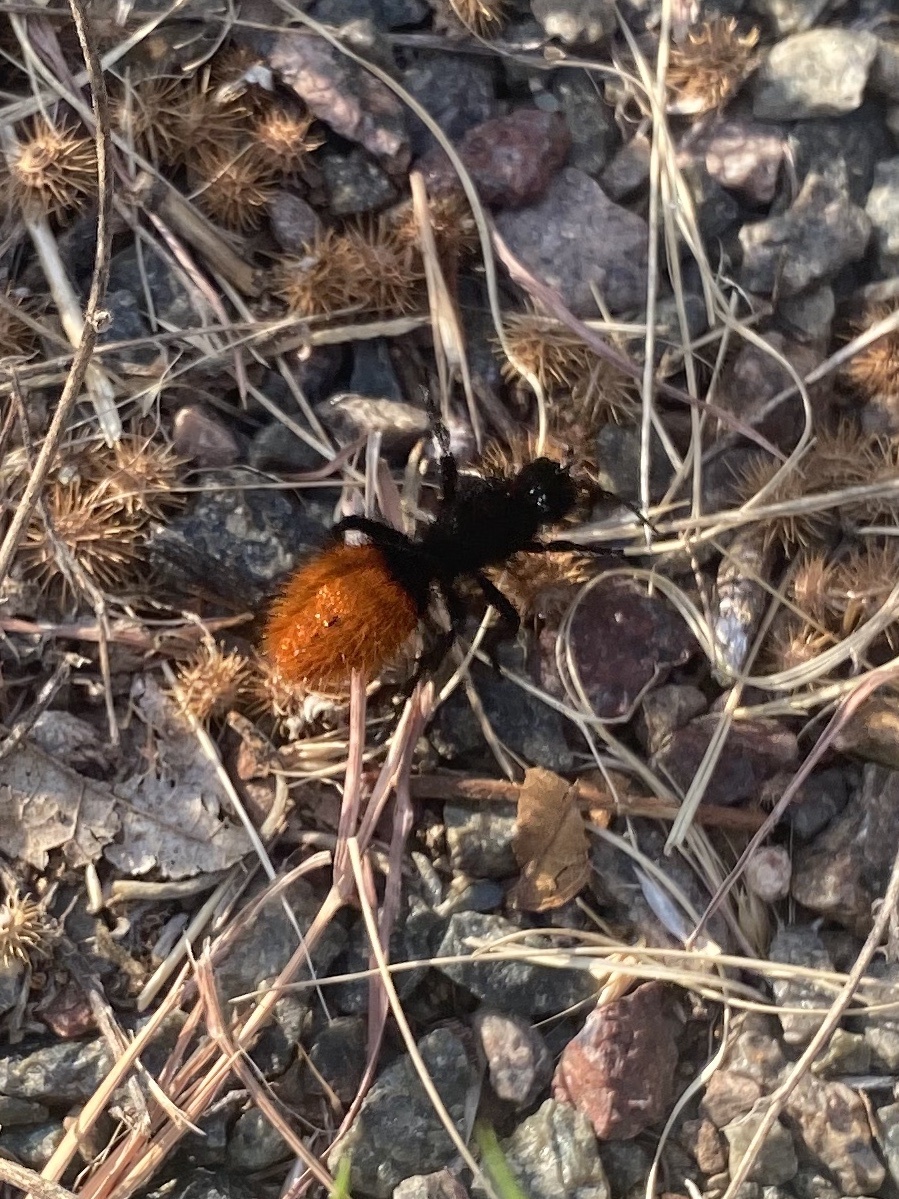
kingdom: Animalia
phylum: Arthropoda
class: Insecta
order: Hymenoptera
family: Mutillidae
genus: Dasymutilla
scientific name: Dasymutilla
